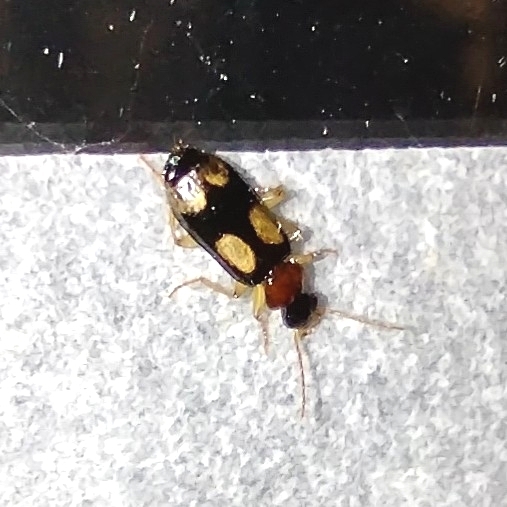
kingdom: Animalia
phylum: Arthropoda
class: Insecta
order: Coleoptera
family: Carabidae
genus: Dromius
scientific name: Dromius quadrimaculatus
